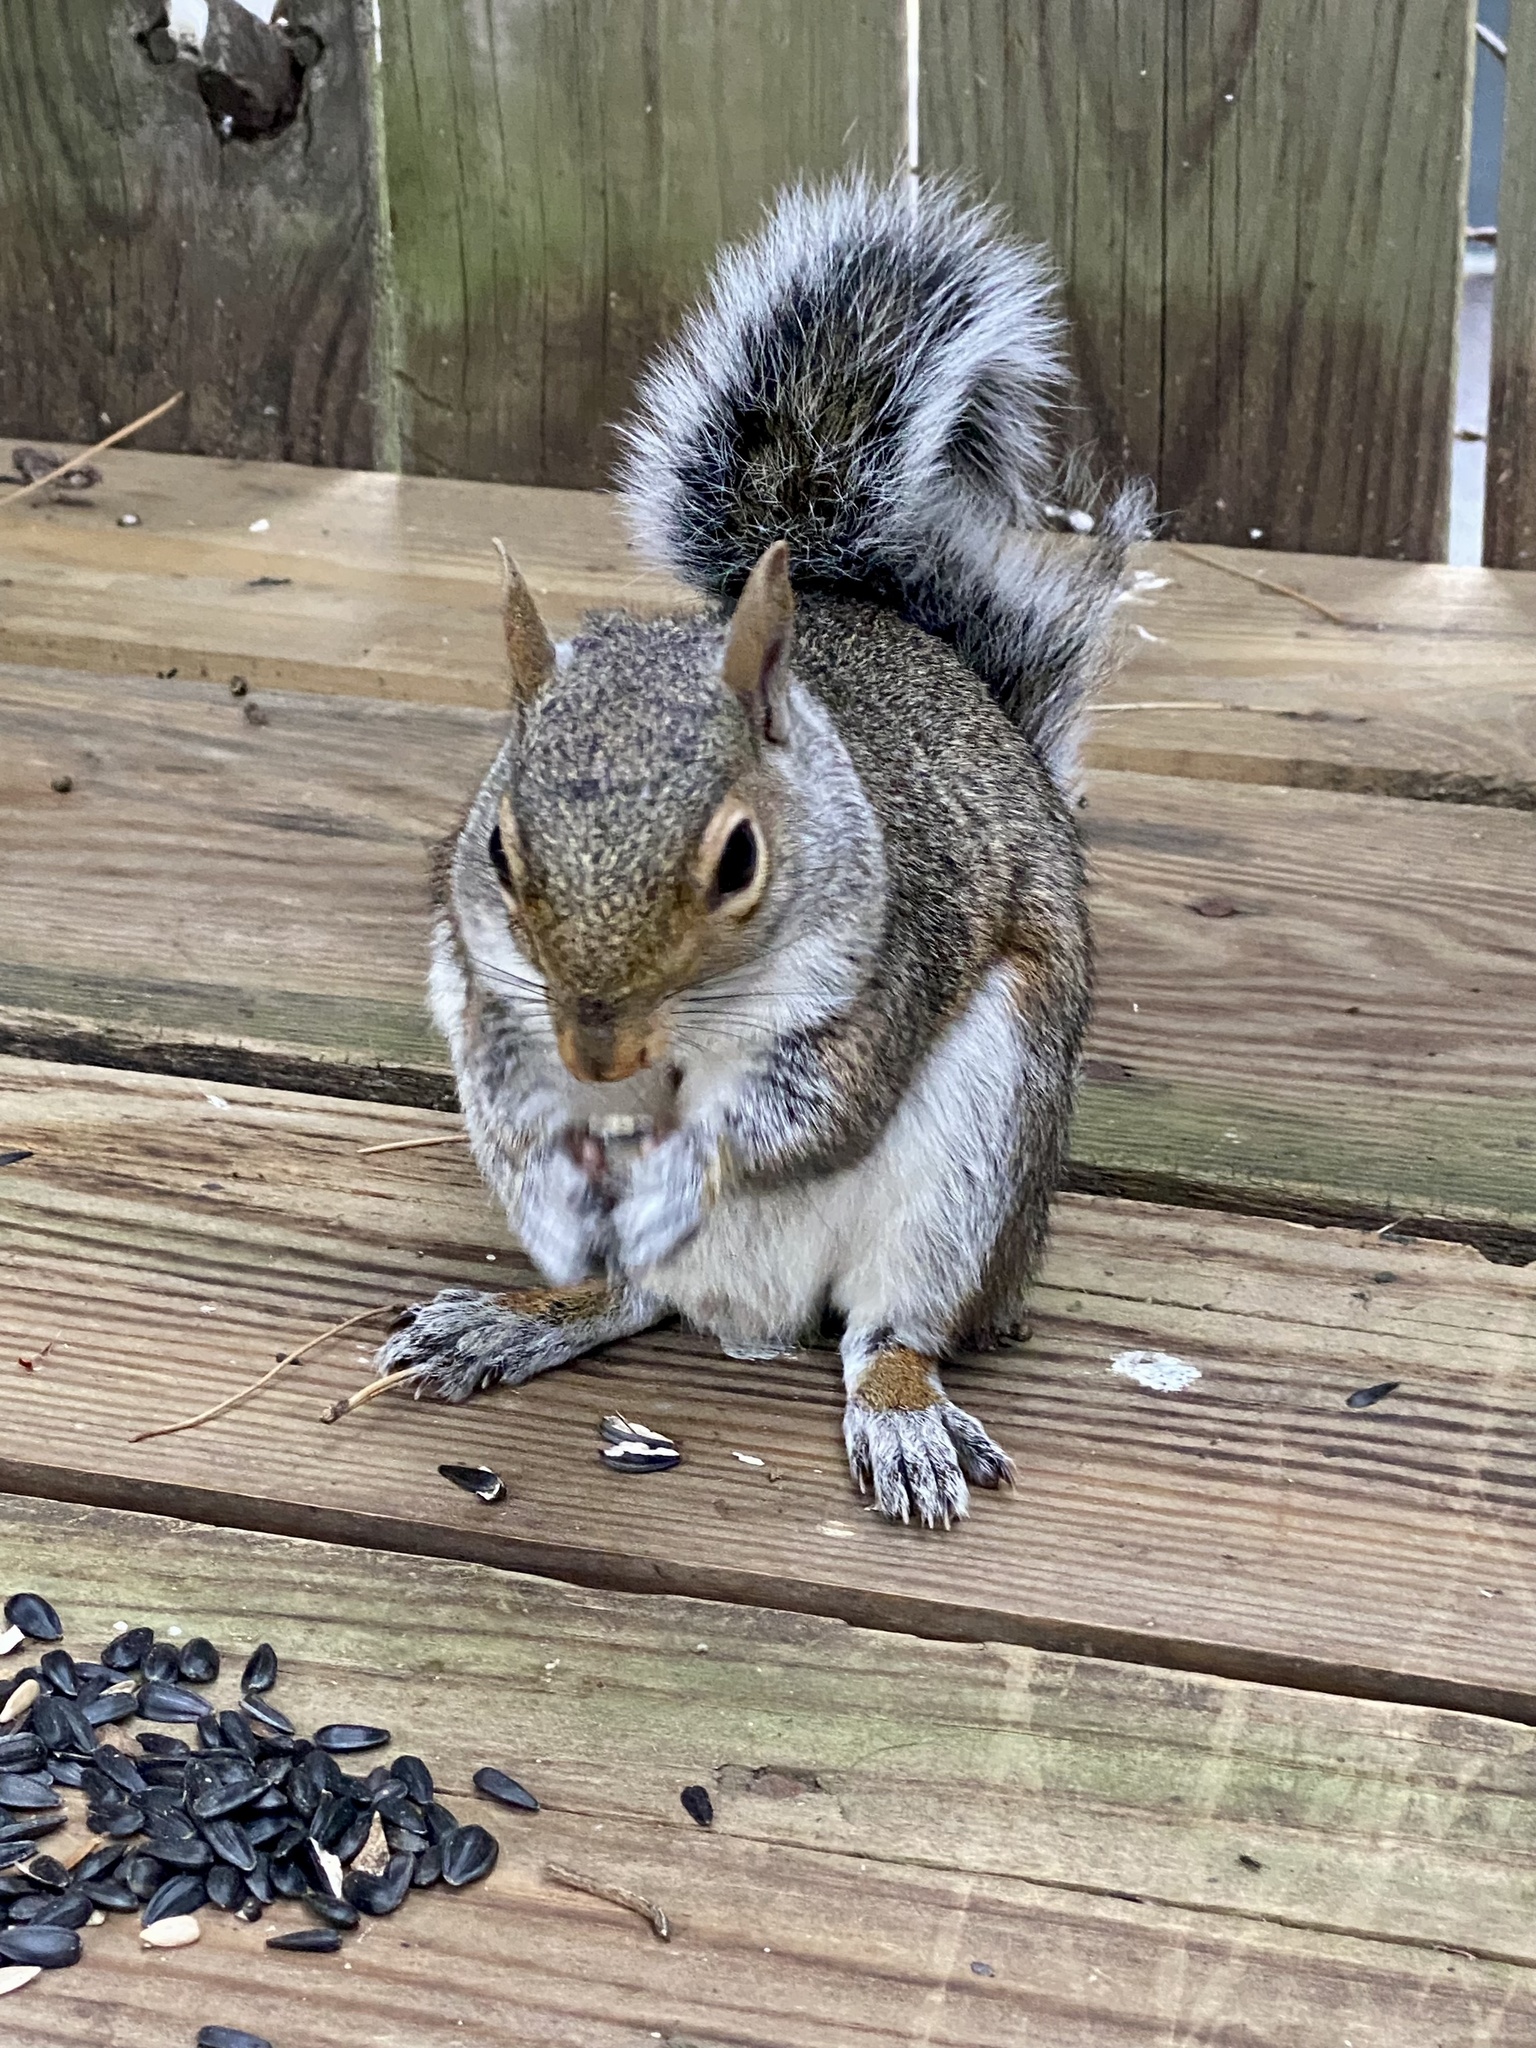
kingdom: Animalia
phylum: Chordata
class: Mammalia
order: Rodentia
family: Sciuridae
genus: Sciurus
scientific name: Sciurus carolinensis
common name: Eastern gray squirrel
